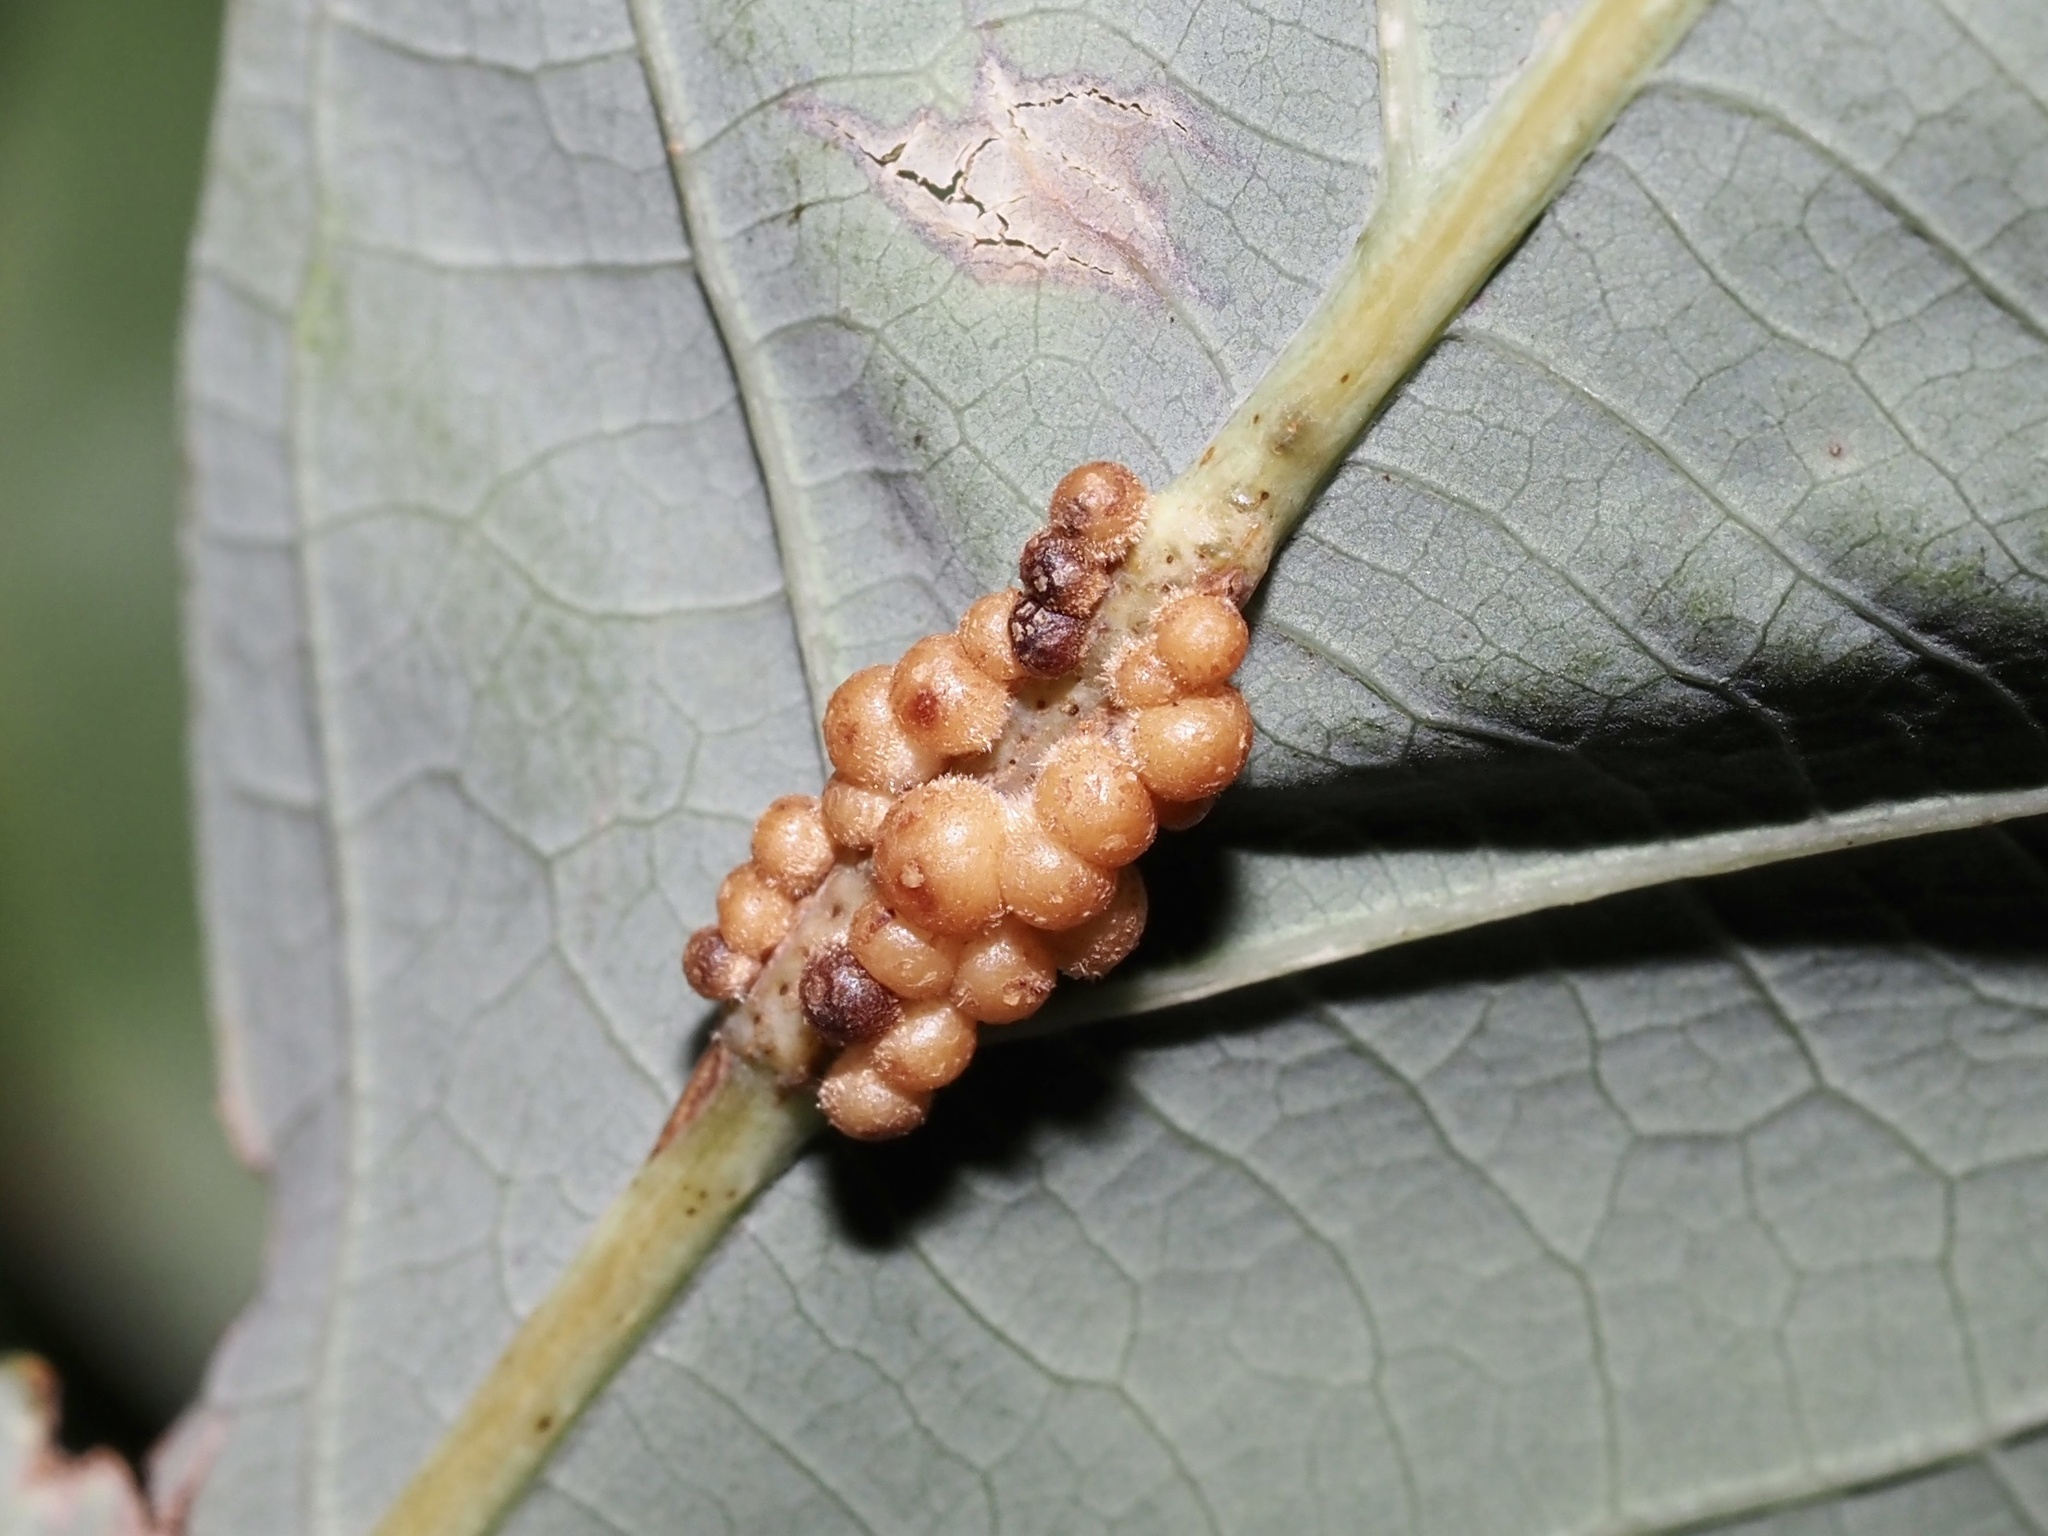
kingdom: Animalia
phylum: Arthropoda
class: Insecta
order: Hymenoptera
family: Cynipidae
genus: Andricus
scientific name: Andricus
